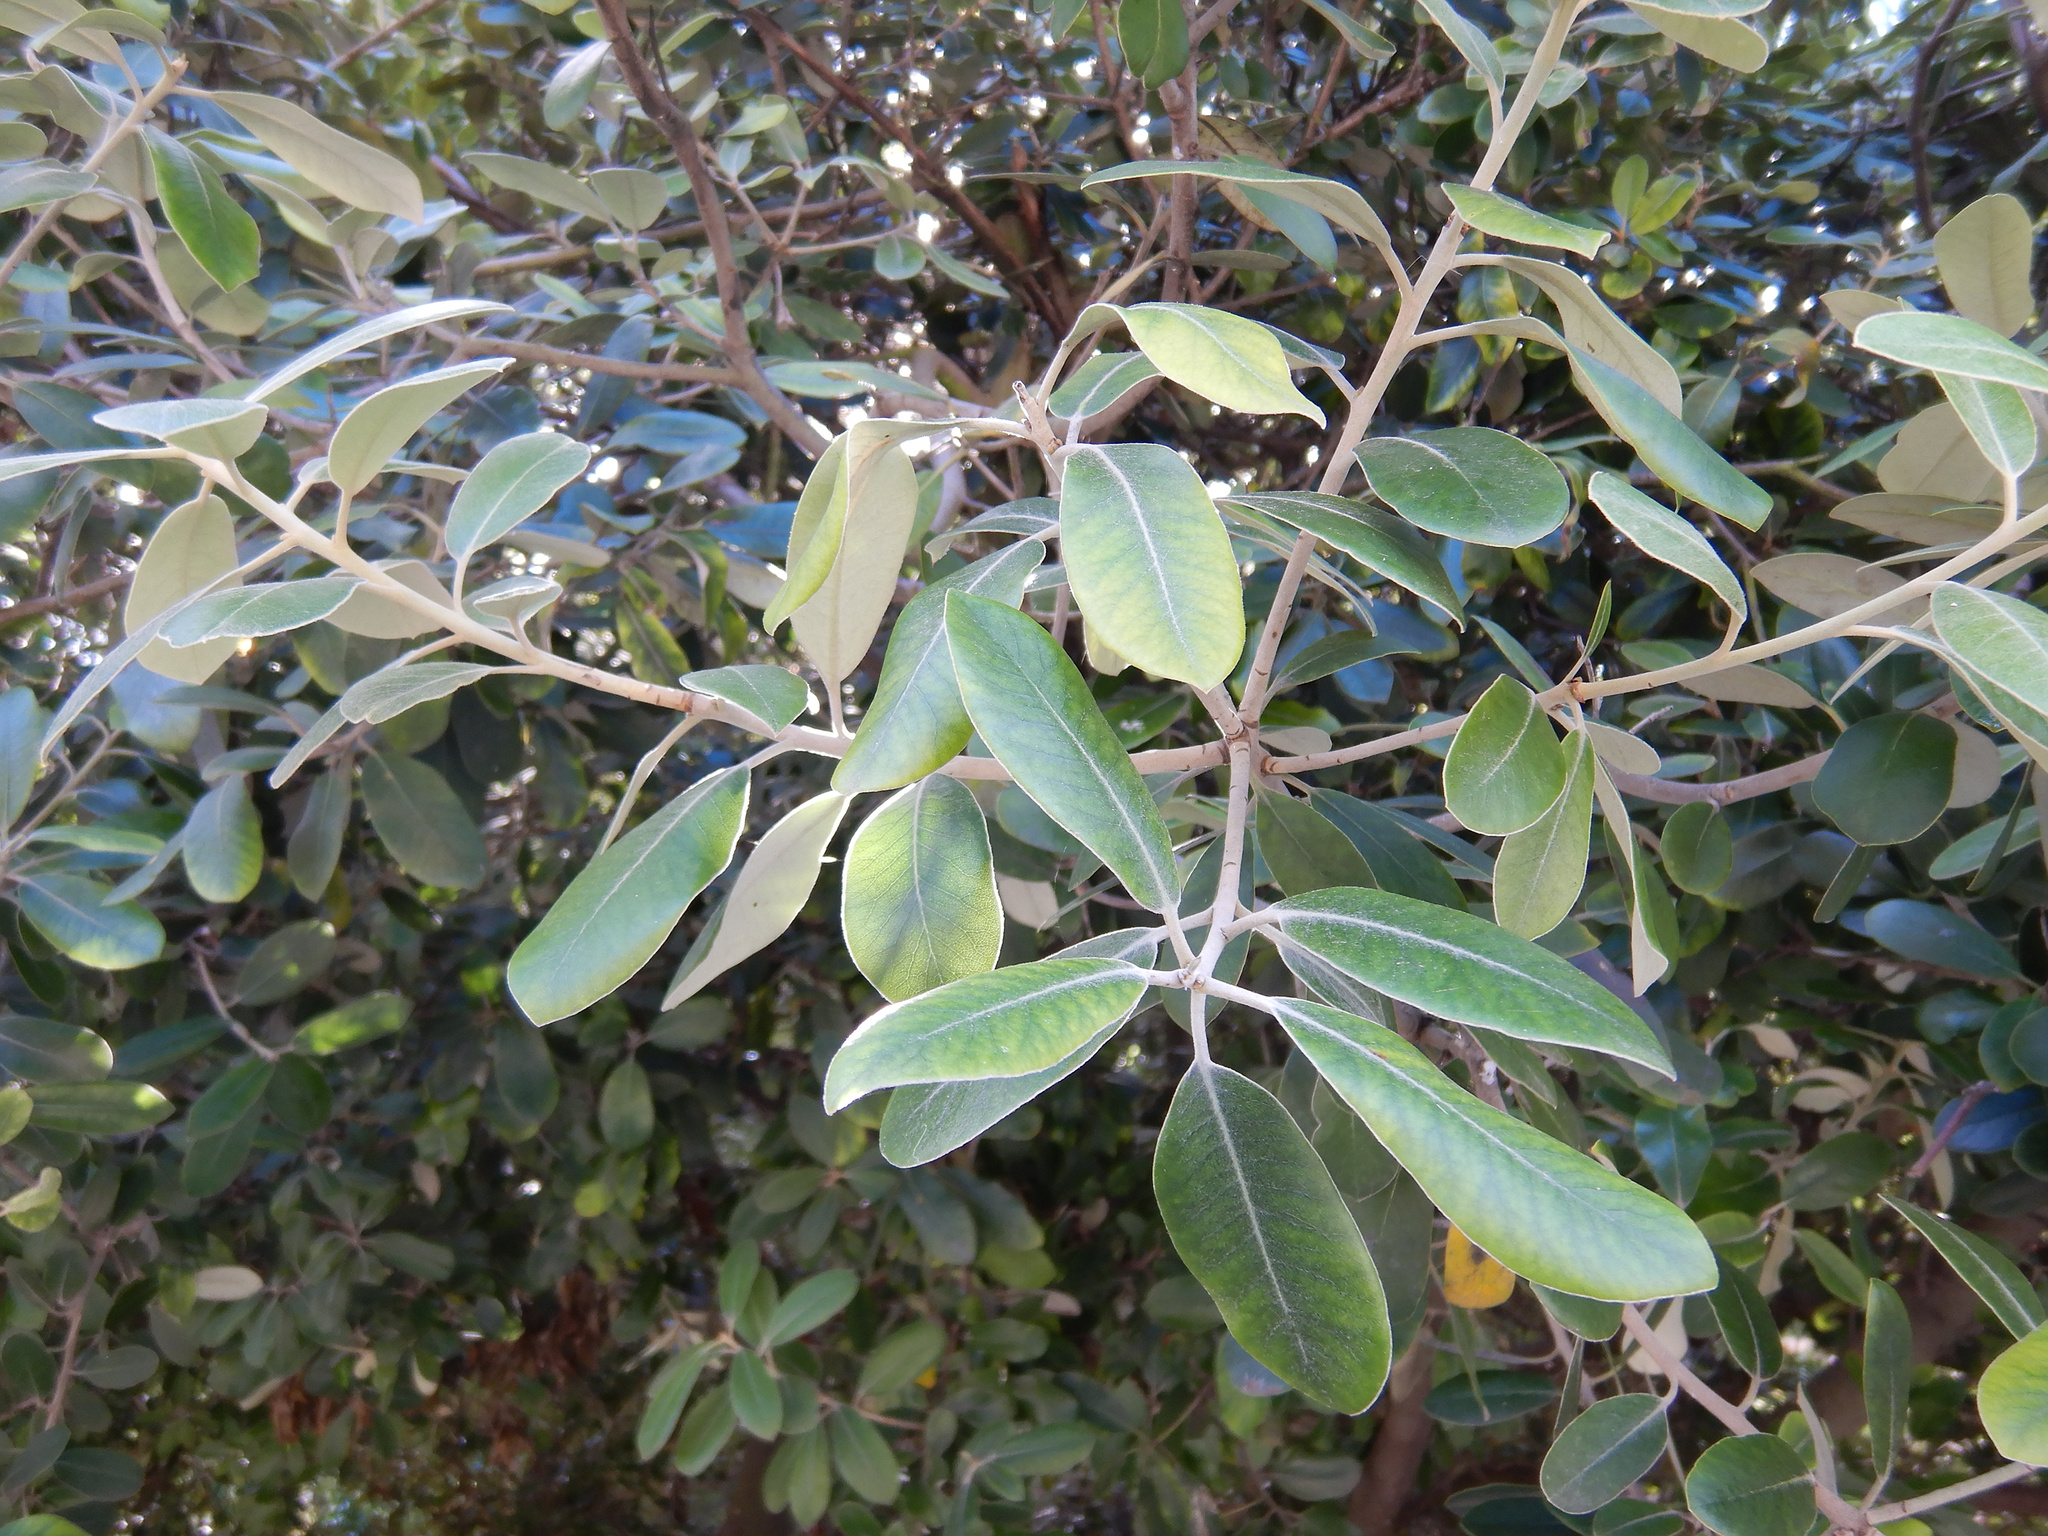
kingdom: Plantae
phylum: Tracheophyta
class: Magnoliopsida
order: Apiales
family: Pittosporaceae
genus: Pittosporum
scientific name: Pittosporum ralphii
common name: Ralph's desertwillow
